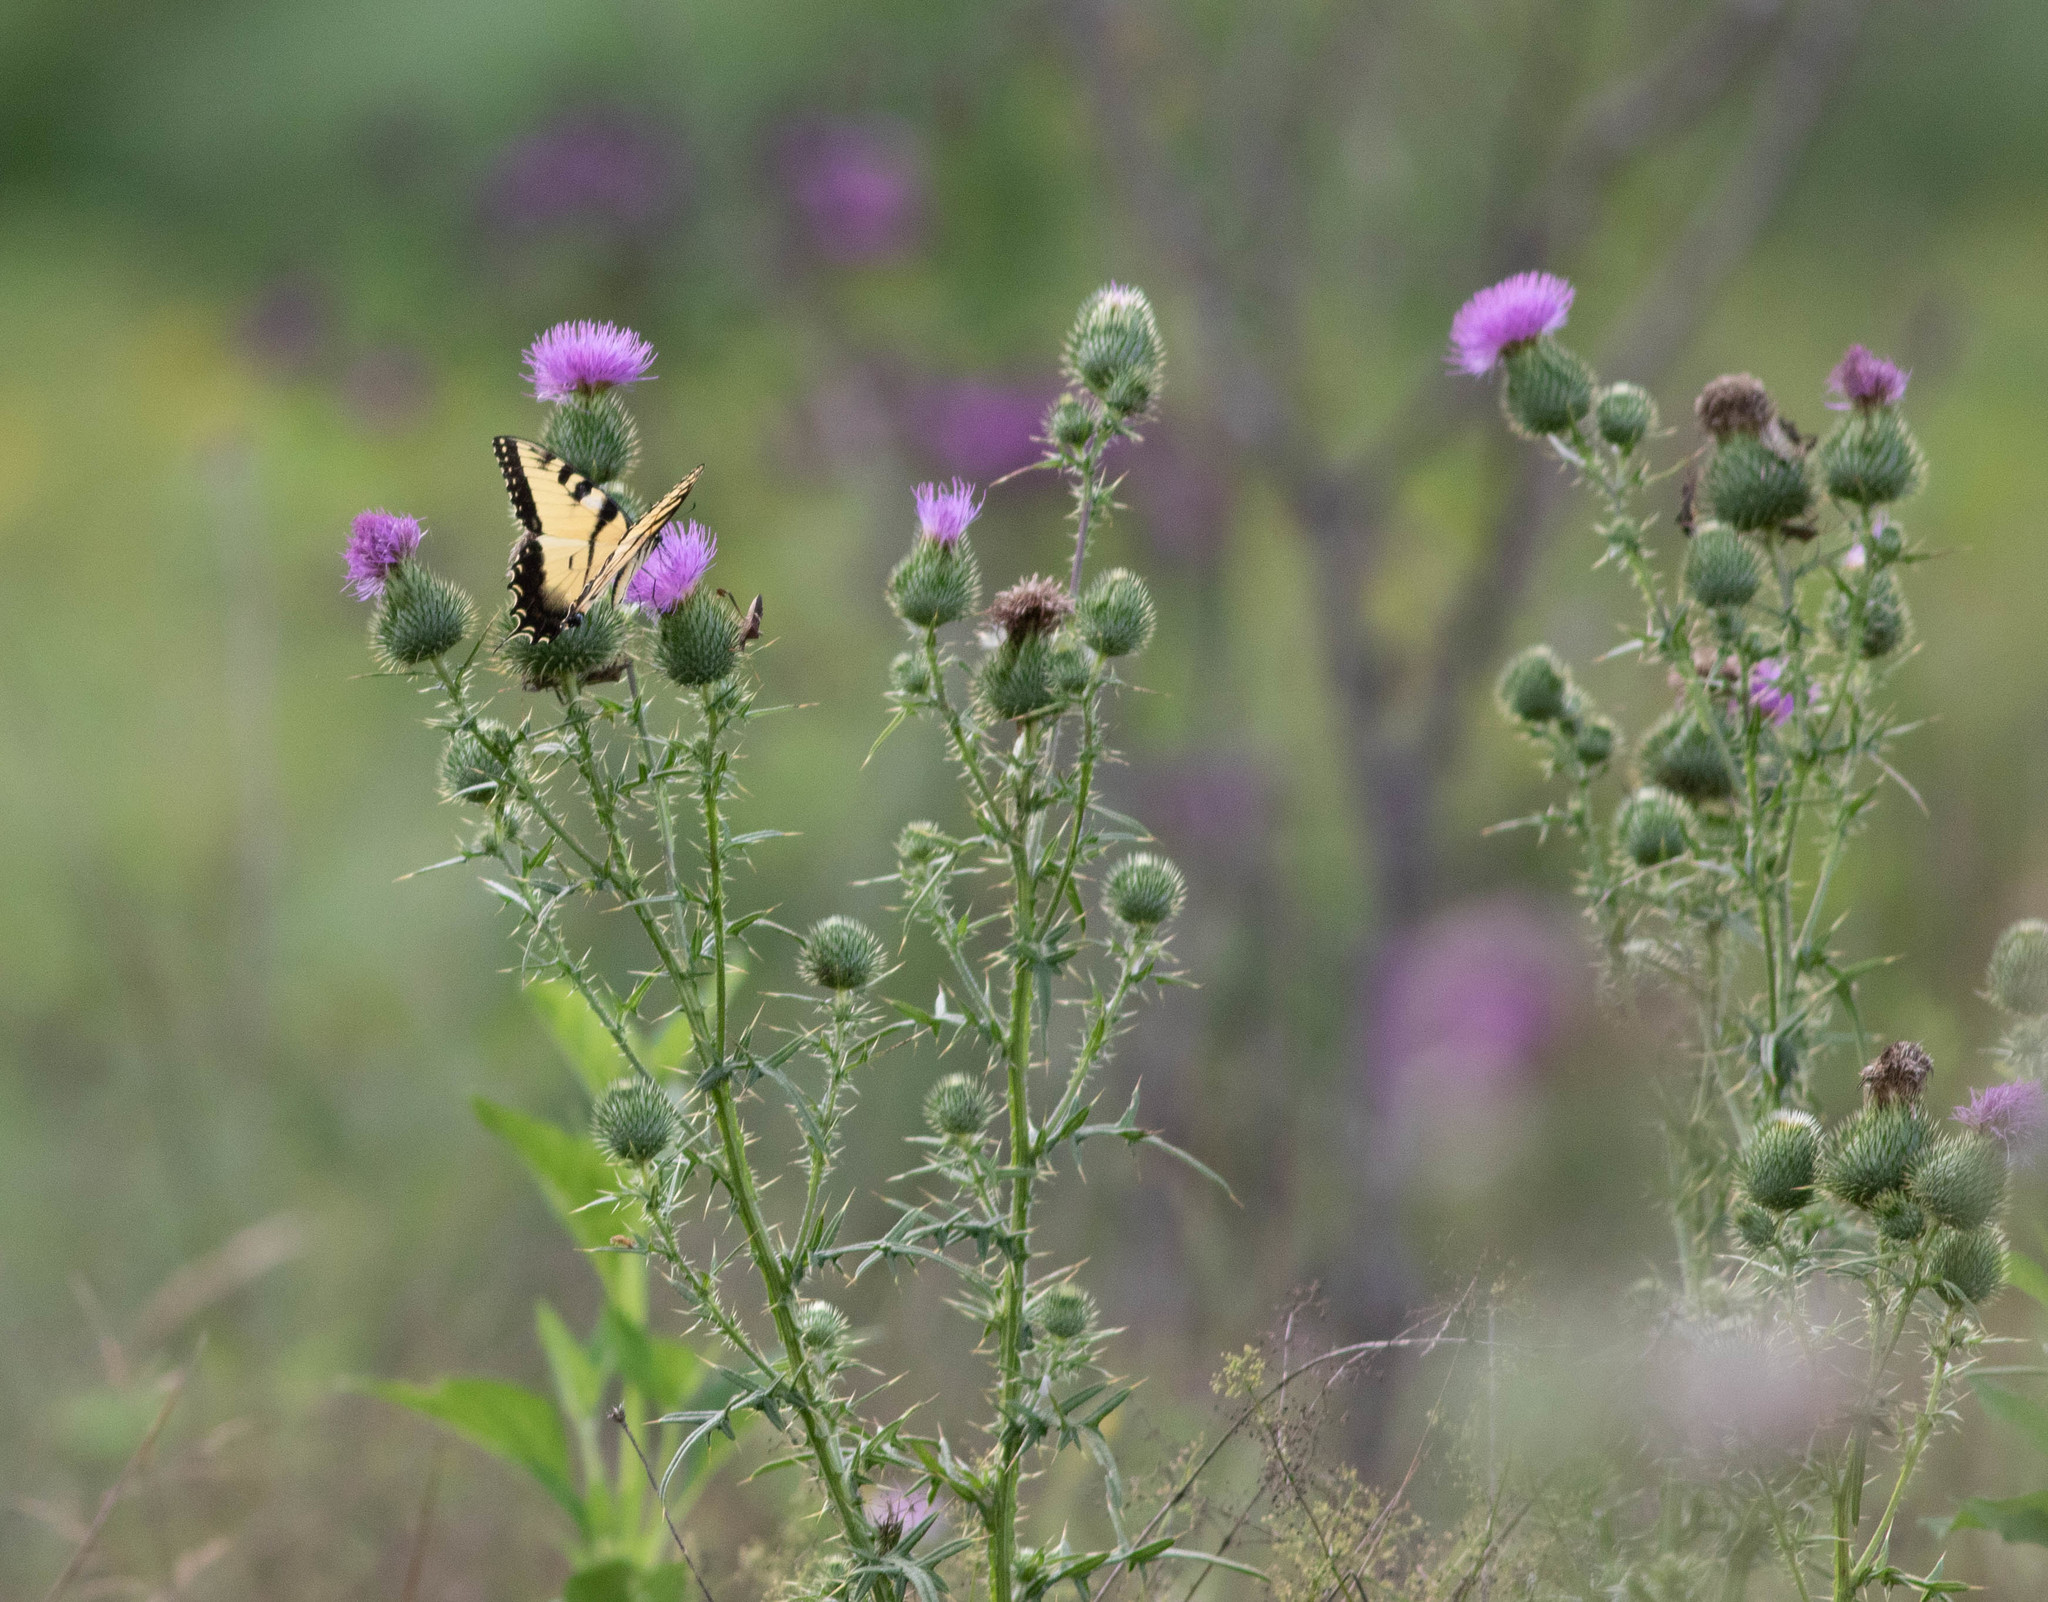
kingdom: Animalia
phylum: Arthropoda
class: Insecta
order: Lepidoptera
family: Papilionidae
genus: Papilio
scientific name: Papilio glaucus
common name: Tiger swallowtail
